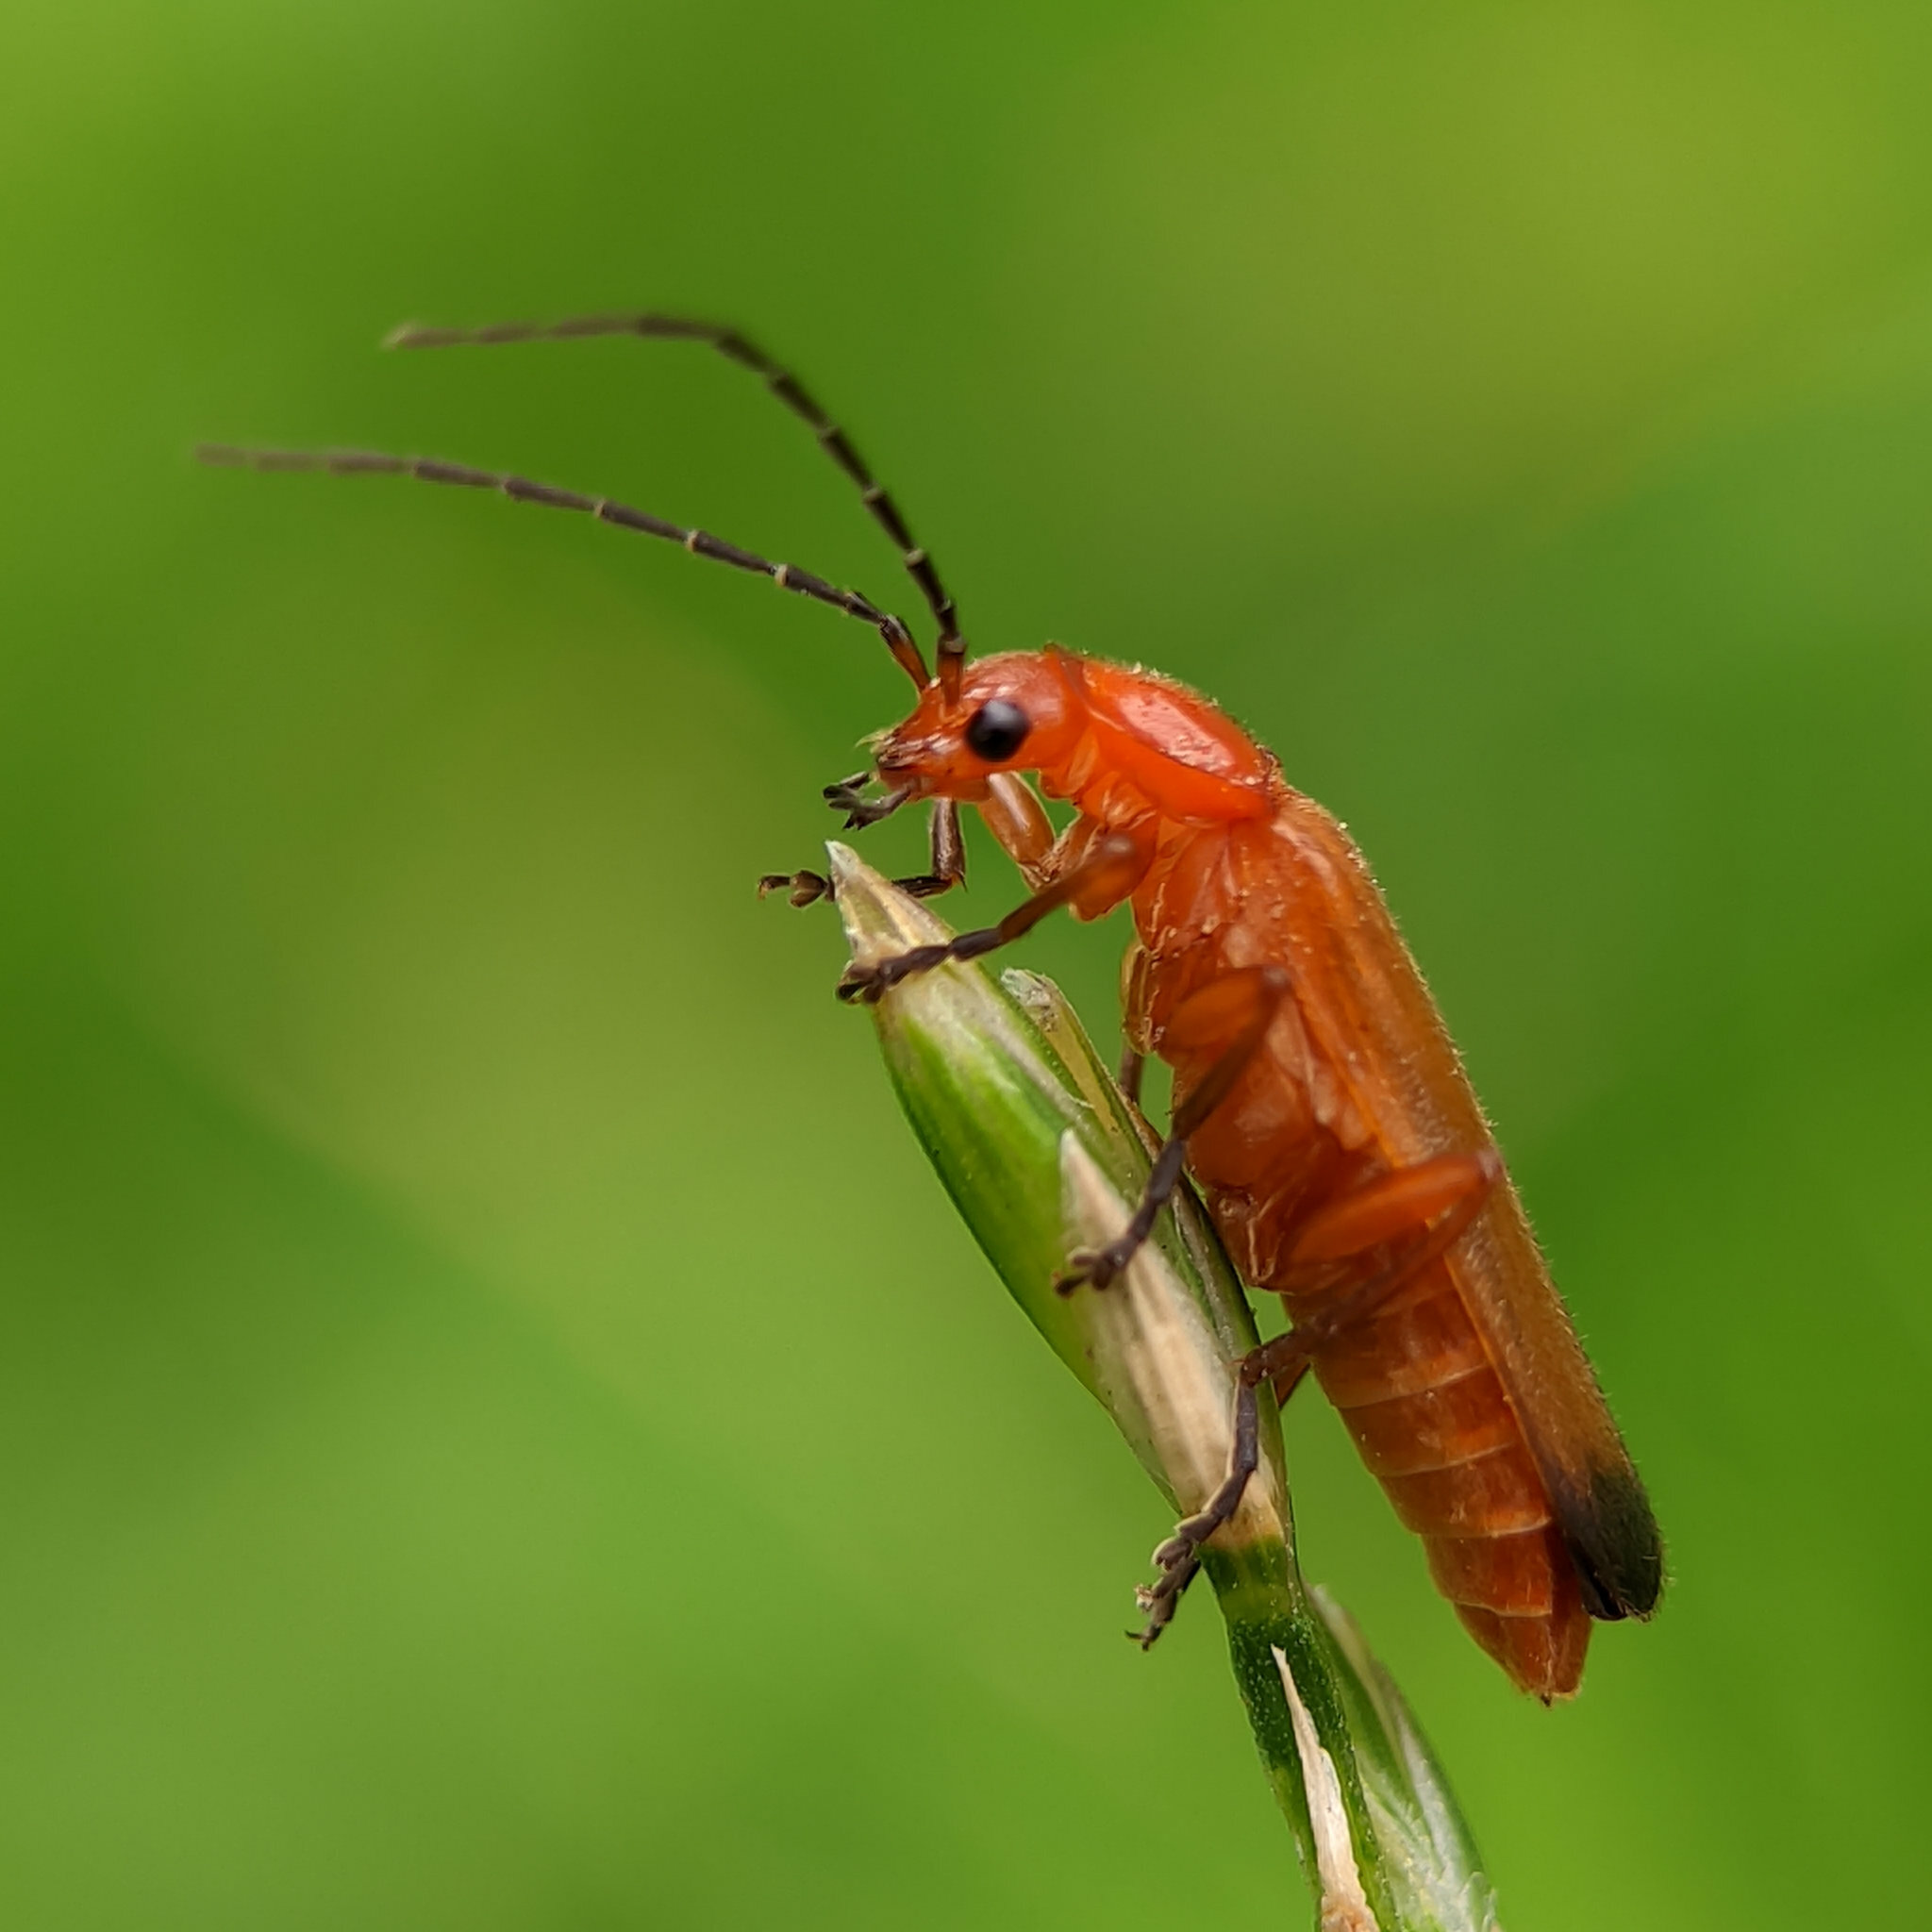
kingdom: Animalia
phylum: Arthropoda
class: Insecta
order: Coleoptera
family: Cantharidae
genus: Rhagonycha
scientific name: Rhagonycha fulva
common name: Common red soldier beetle
